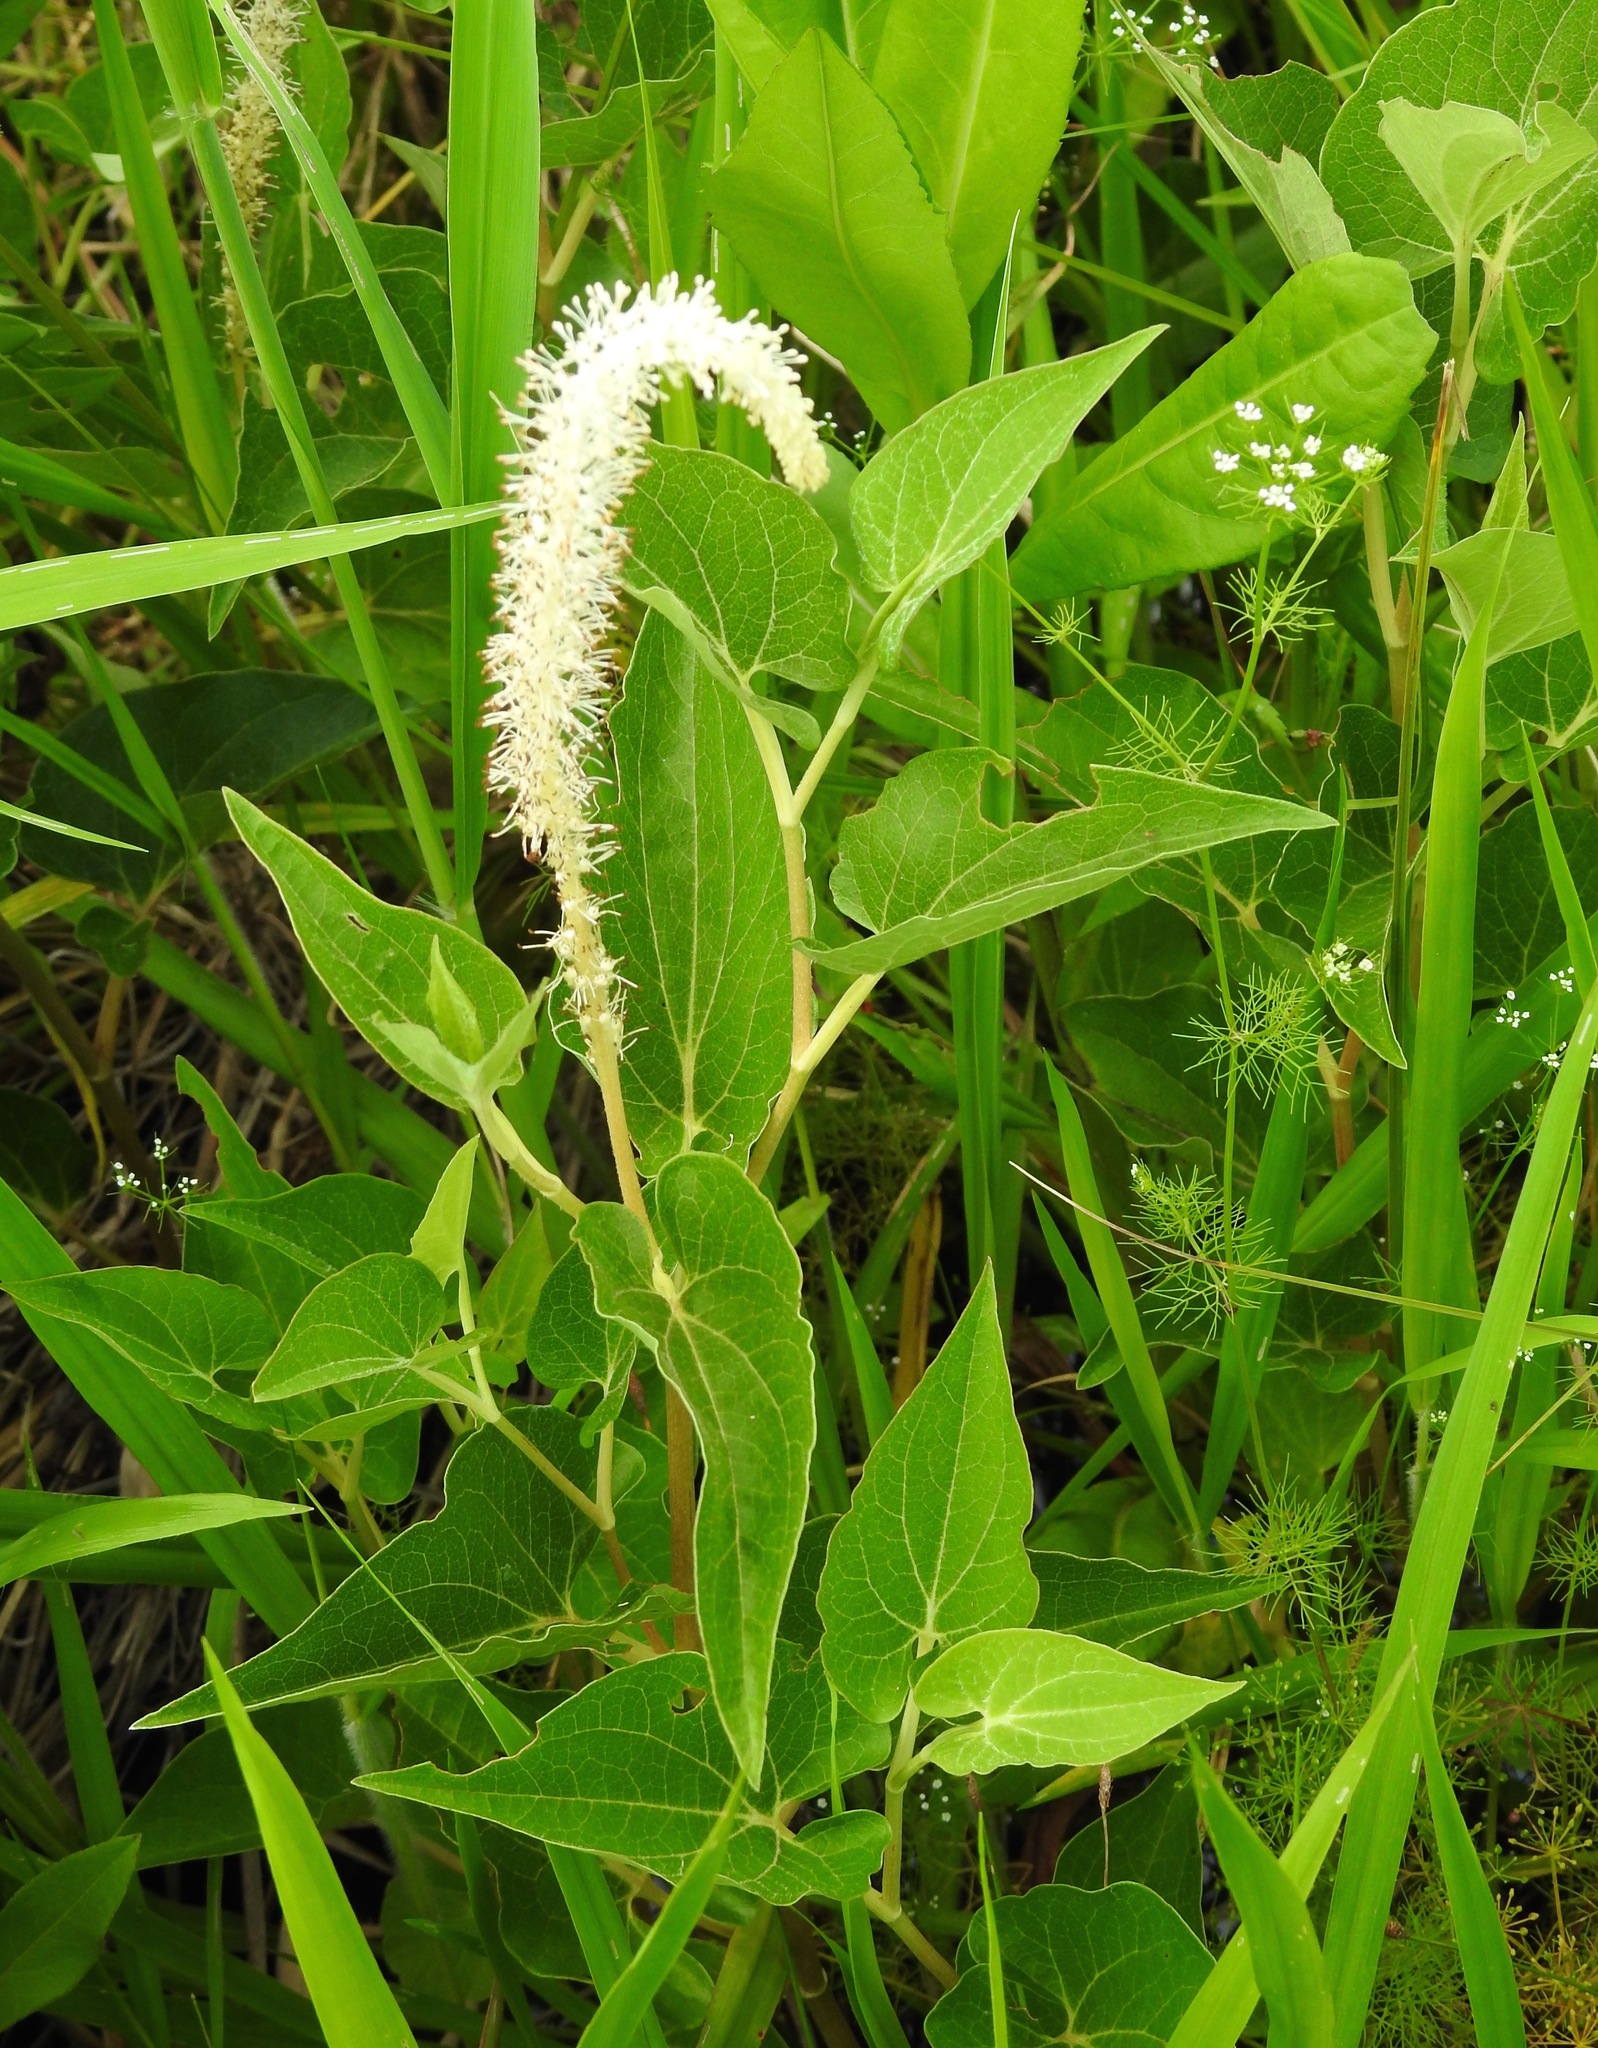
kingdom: Plantae
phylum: Tracheophyta
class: Magnoliopsida
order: Piperales
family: Saururaceae
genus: Saururus
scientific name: Saururus cernuus
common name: Lizard's-tail
